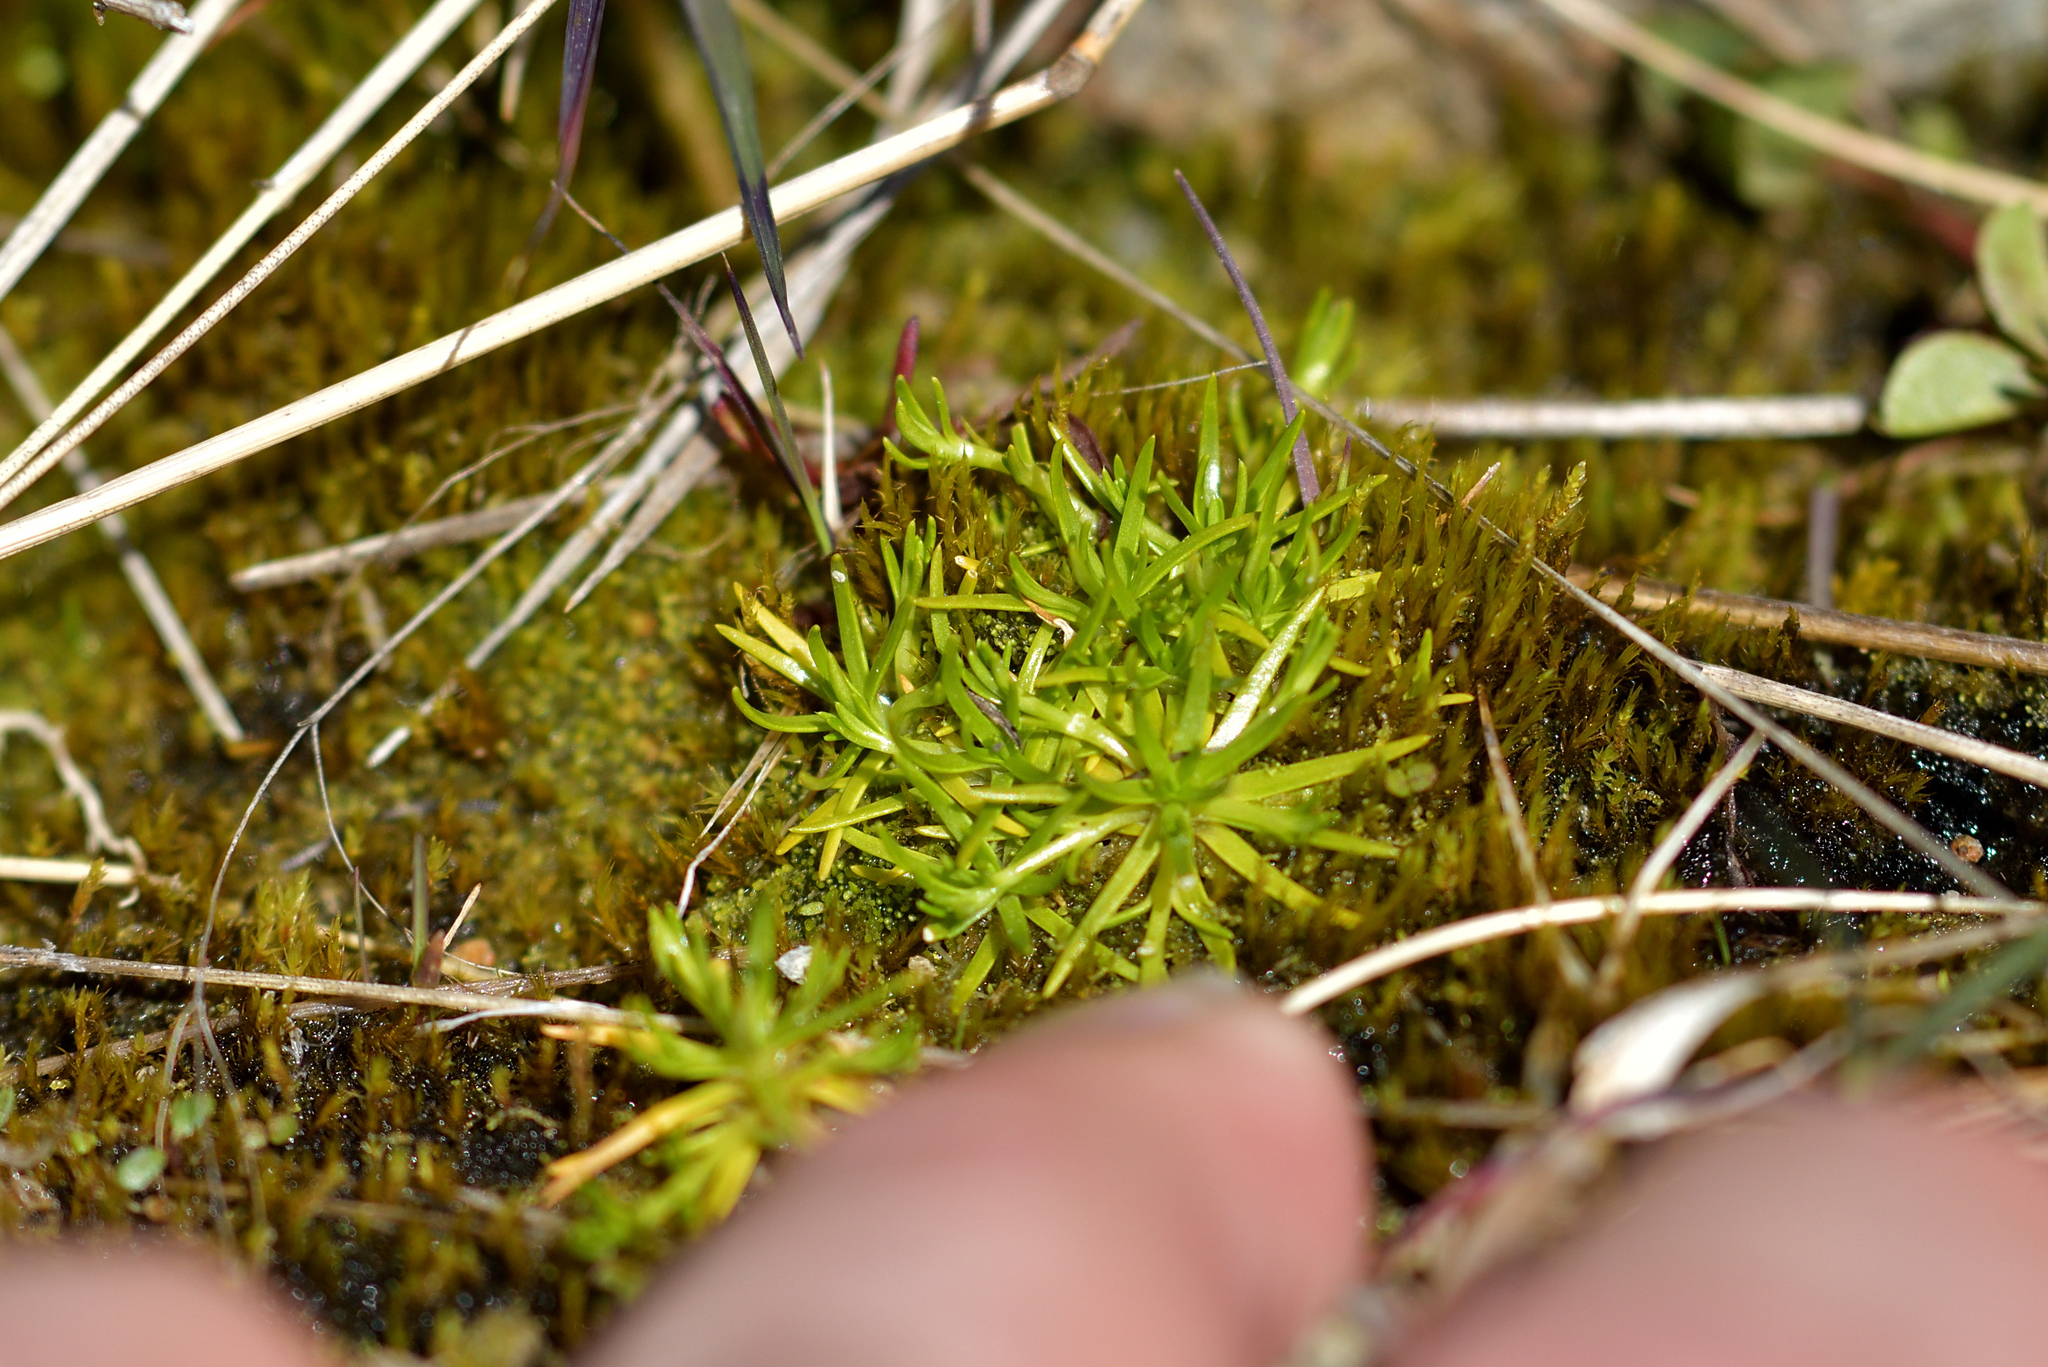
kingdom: Plantae
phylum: Tracheophyta
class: Magnoliopsida
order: Caryophyllales
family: Caryophyllaceae
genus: Sagina
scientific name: Sagina procumbens
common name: Procumbent pearlwort
